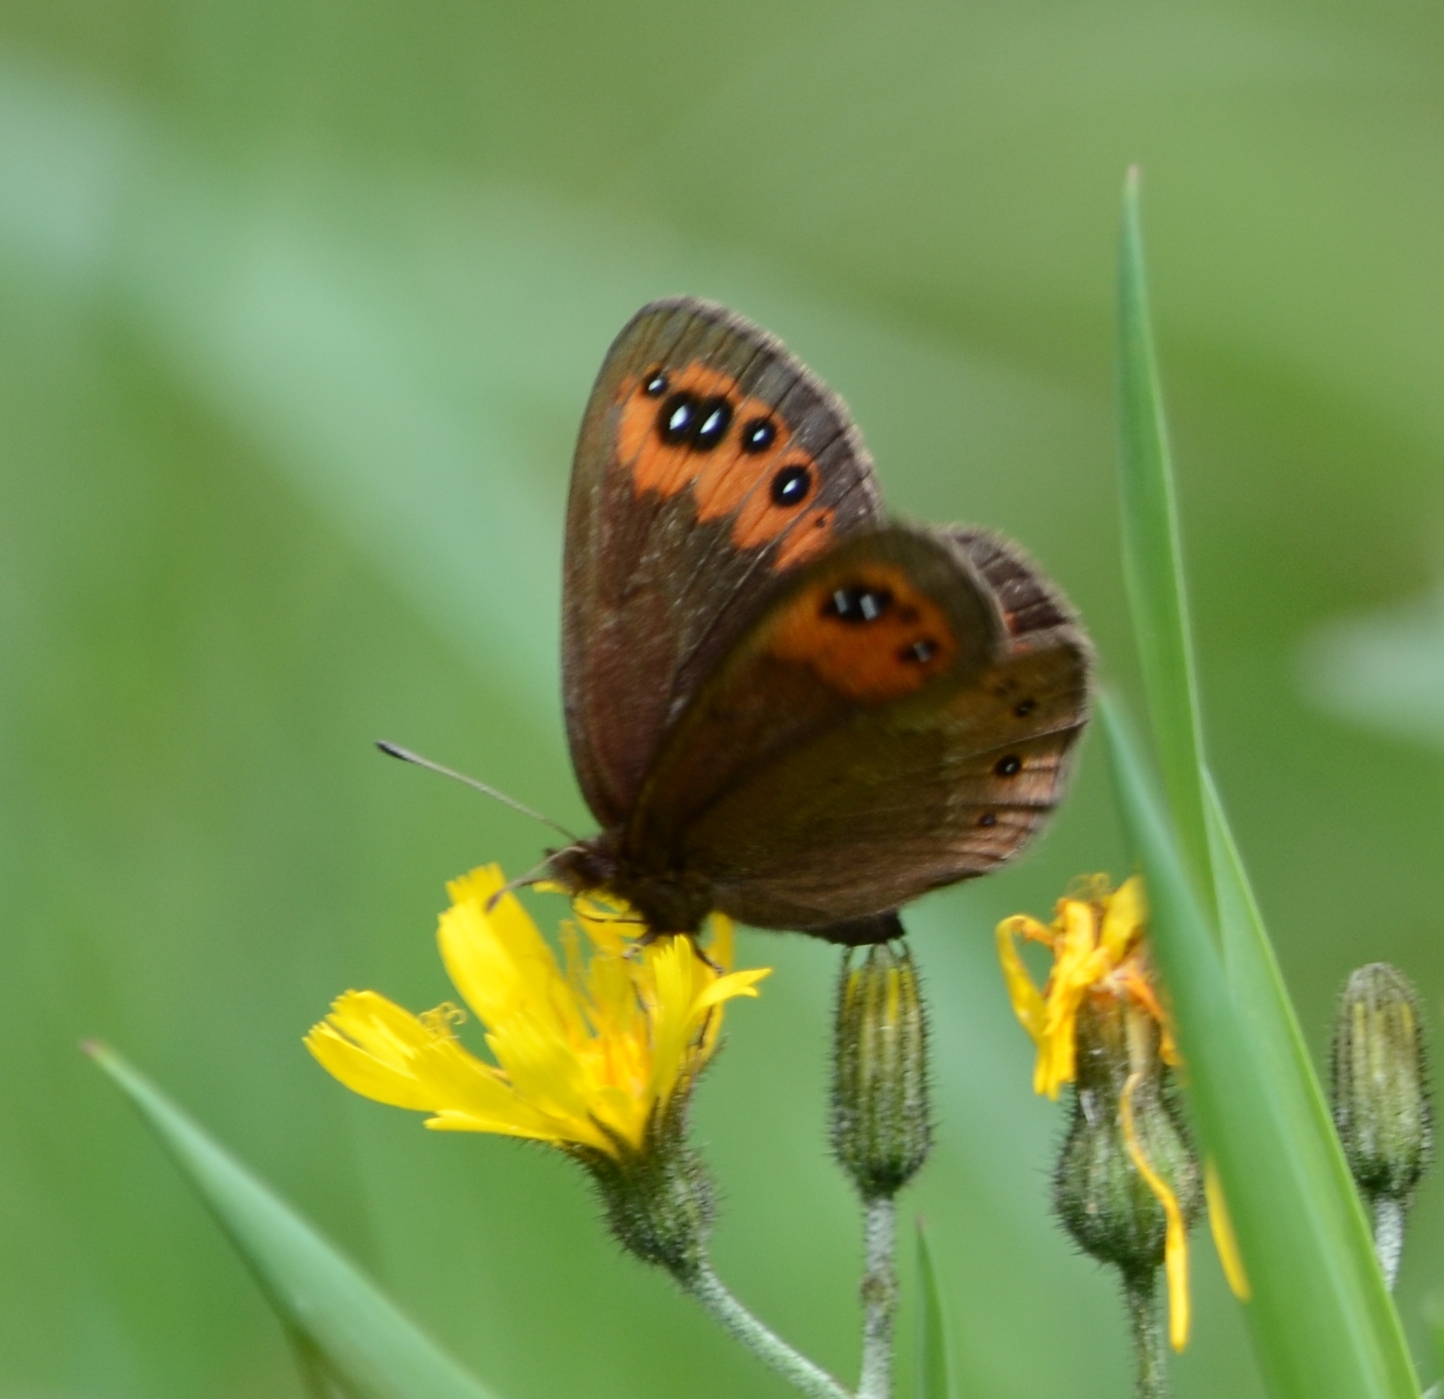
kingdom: Animalia
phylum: Arthropoda
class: Insecta
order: Lepidoptera
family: Nymphalidae
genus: Erebia
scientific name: Erebia meolans
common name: Piedmont ringlet
